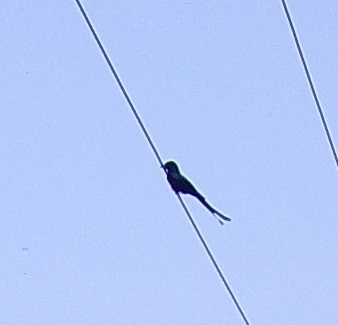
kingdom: Animalia
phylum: Chordata
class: Aves
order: Passeriformes
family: Dicruridae
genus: Dicrurus
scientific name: Dicrurus macrocercus
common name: Black drongo
